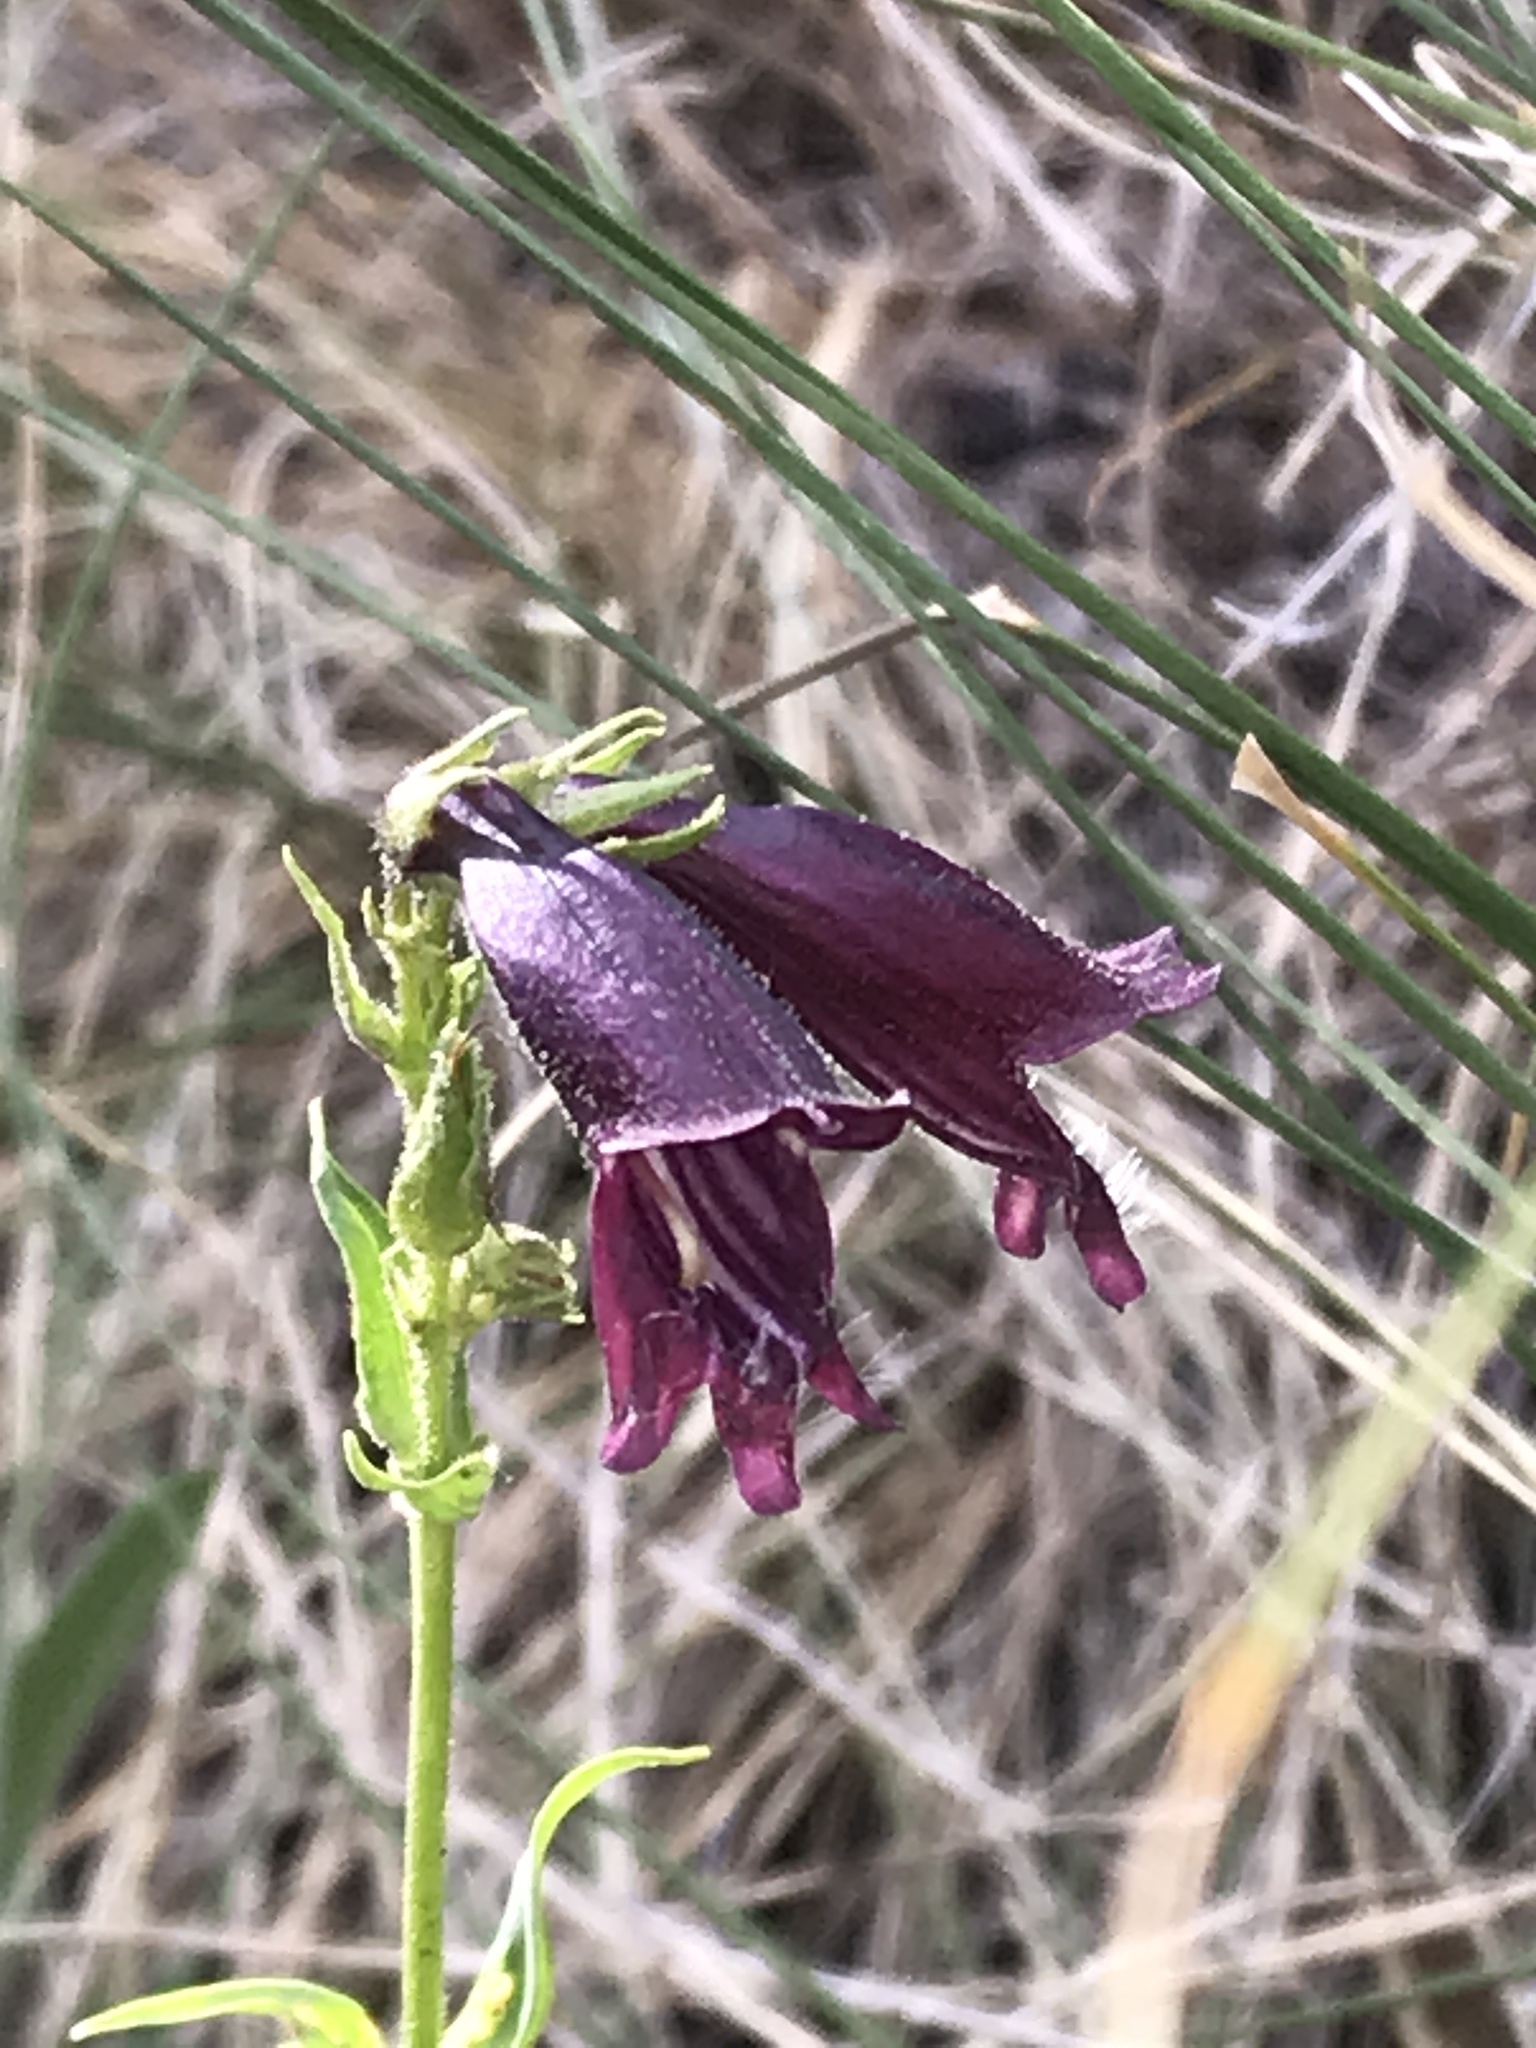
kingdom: Plantae
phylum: Tracheophyta
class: Magnoliopsida
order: Lamiales
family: Plantaginaceae
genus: Penstemon
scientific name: Penstemon whippleanus
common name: Whipple's penstemon
